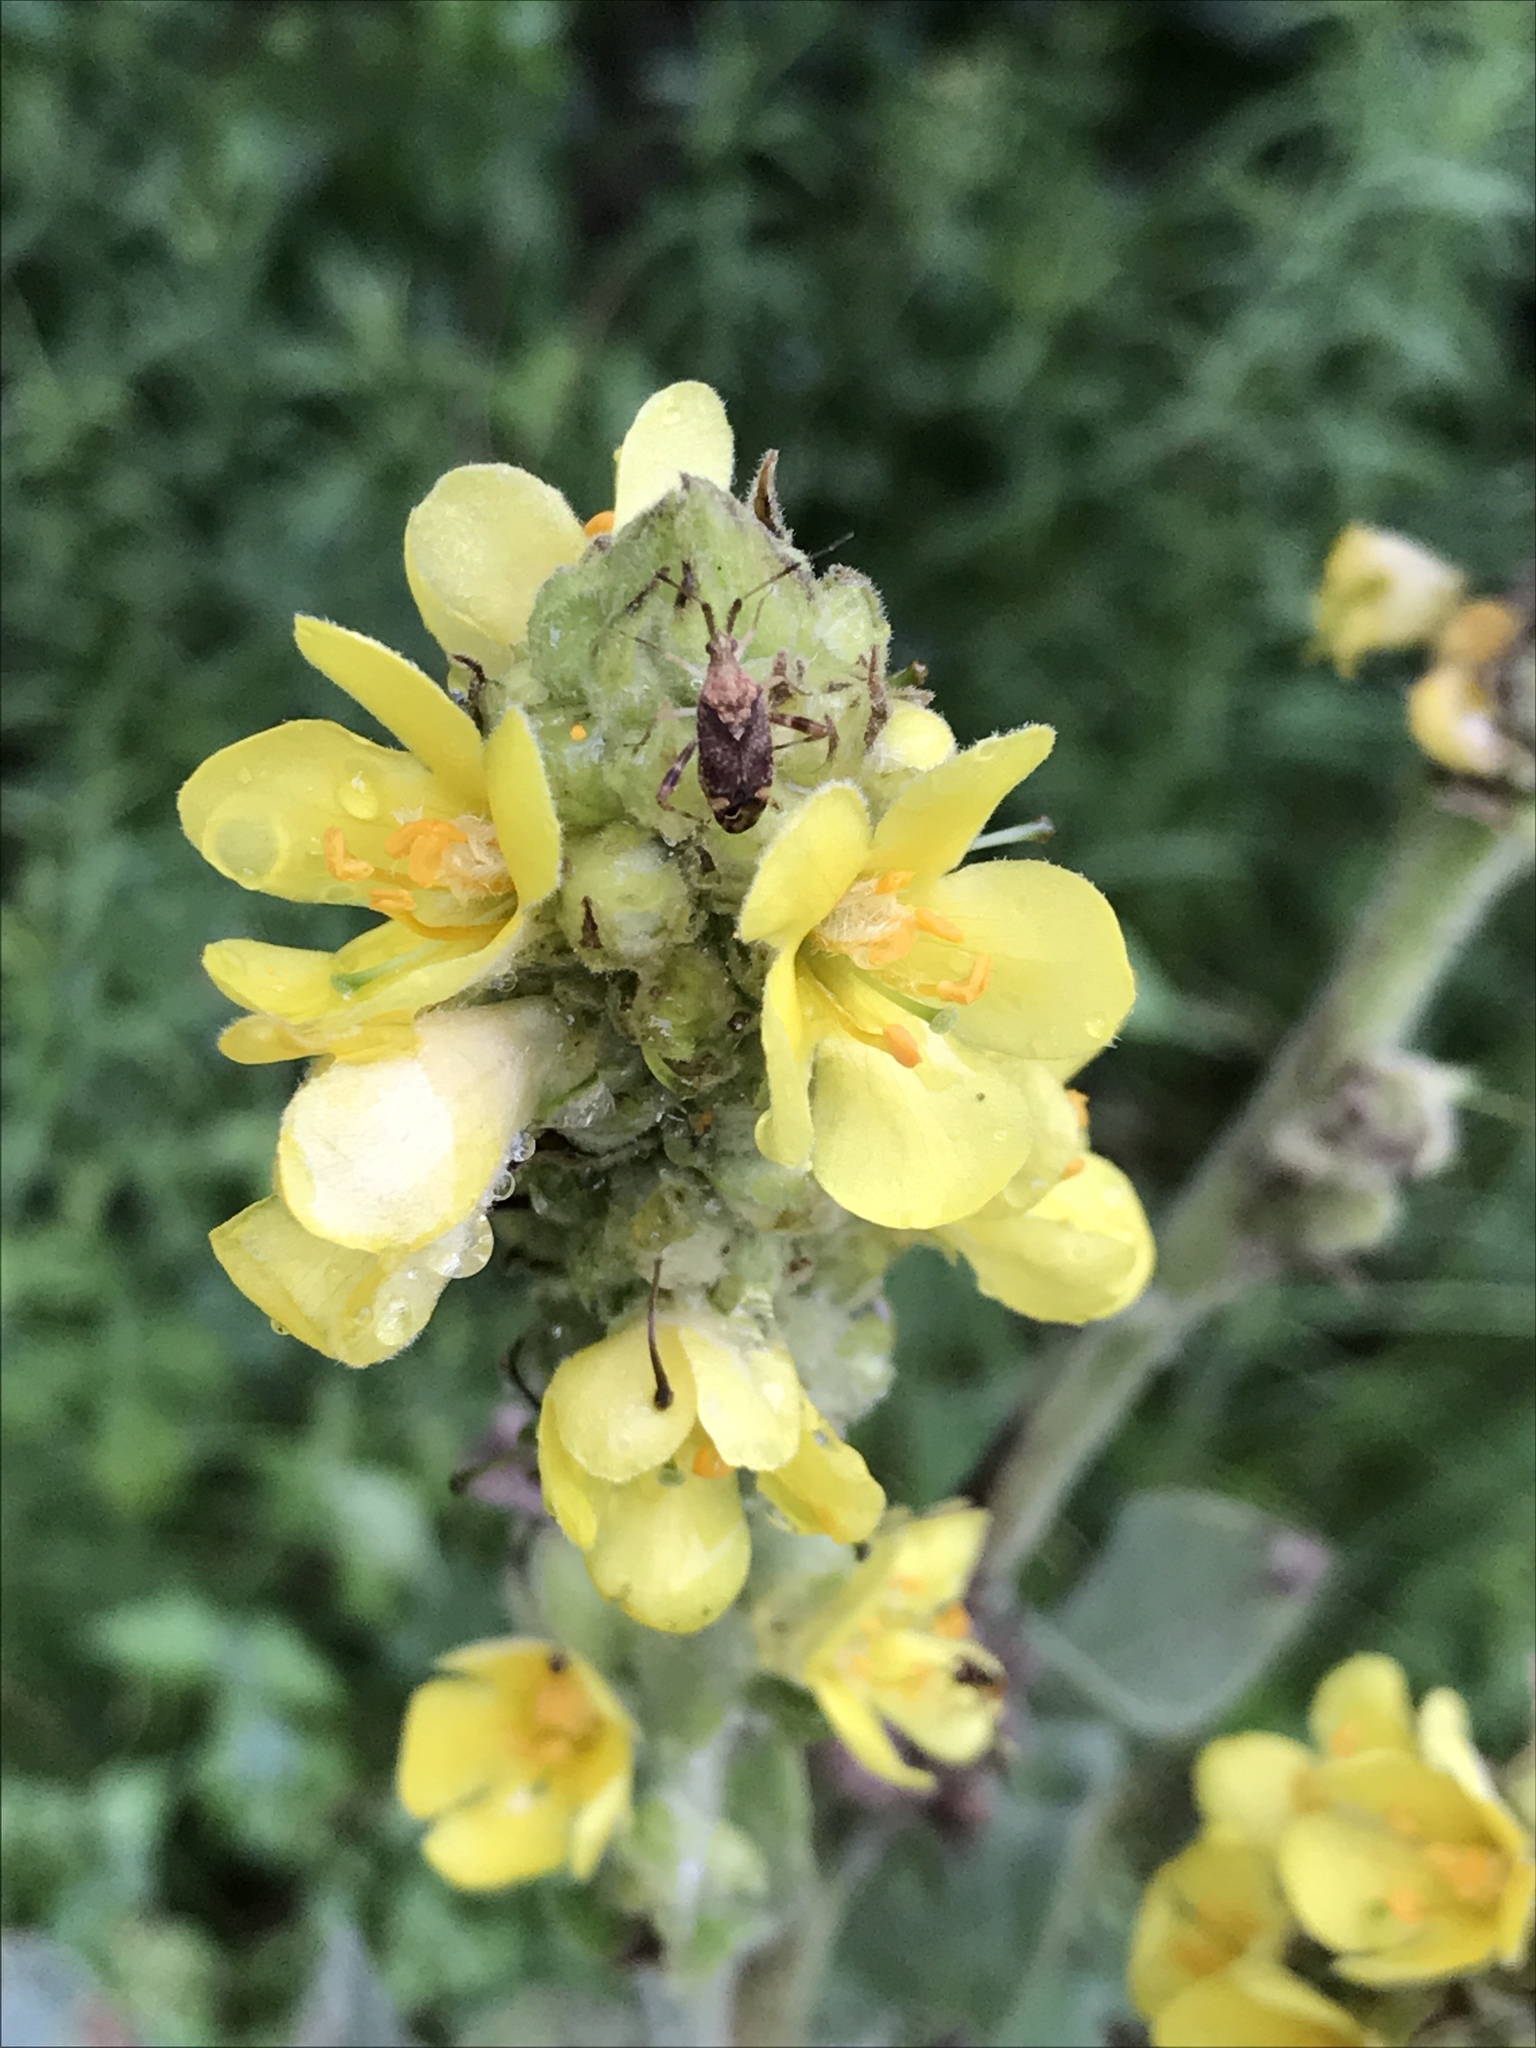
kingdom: Plantae
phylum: Tracheophyta
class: Magnoliopsida
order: Lamiales
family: Scrophulariaceae
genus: Verbascum
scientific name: Verbascum thapsus
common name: Common mullein
